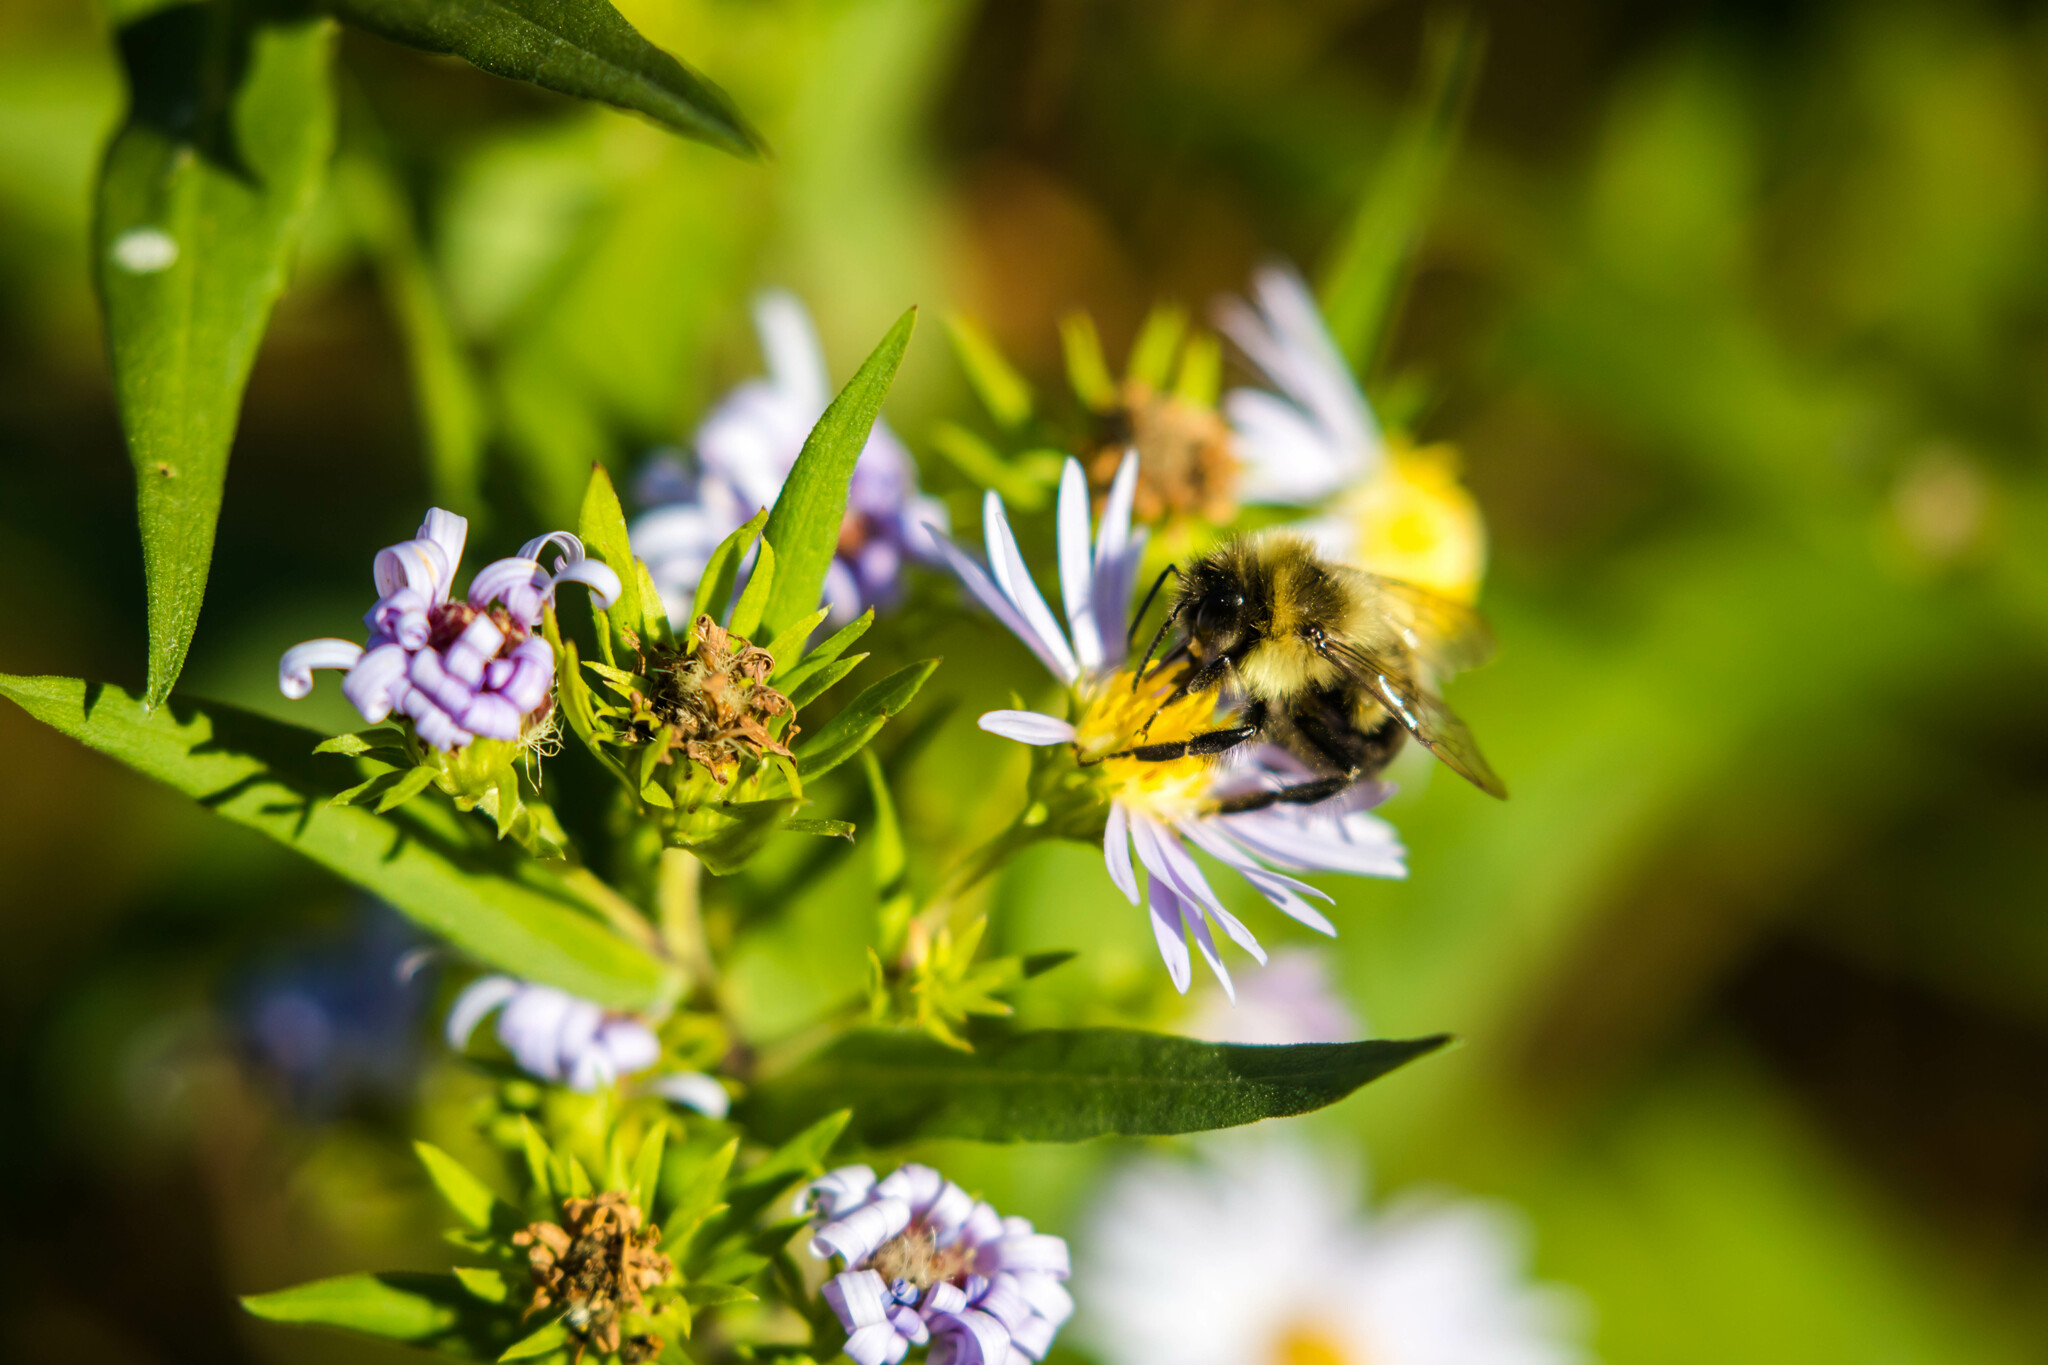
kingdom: Animalia
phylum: Arthropoda
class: Insecta
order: Hymenoptera
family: Apidae
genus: Bombus
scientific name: Bombus impatiens
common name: Common eastern bumble bee
